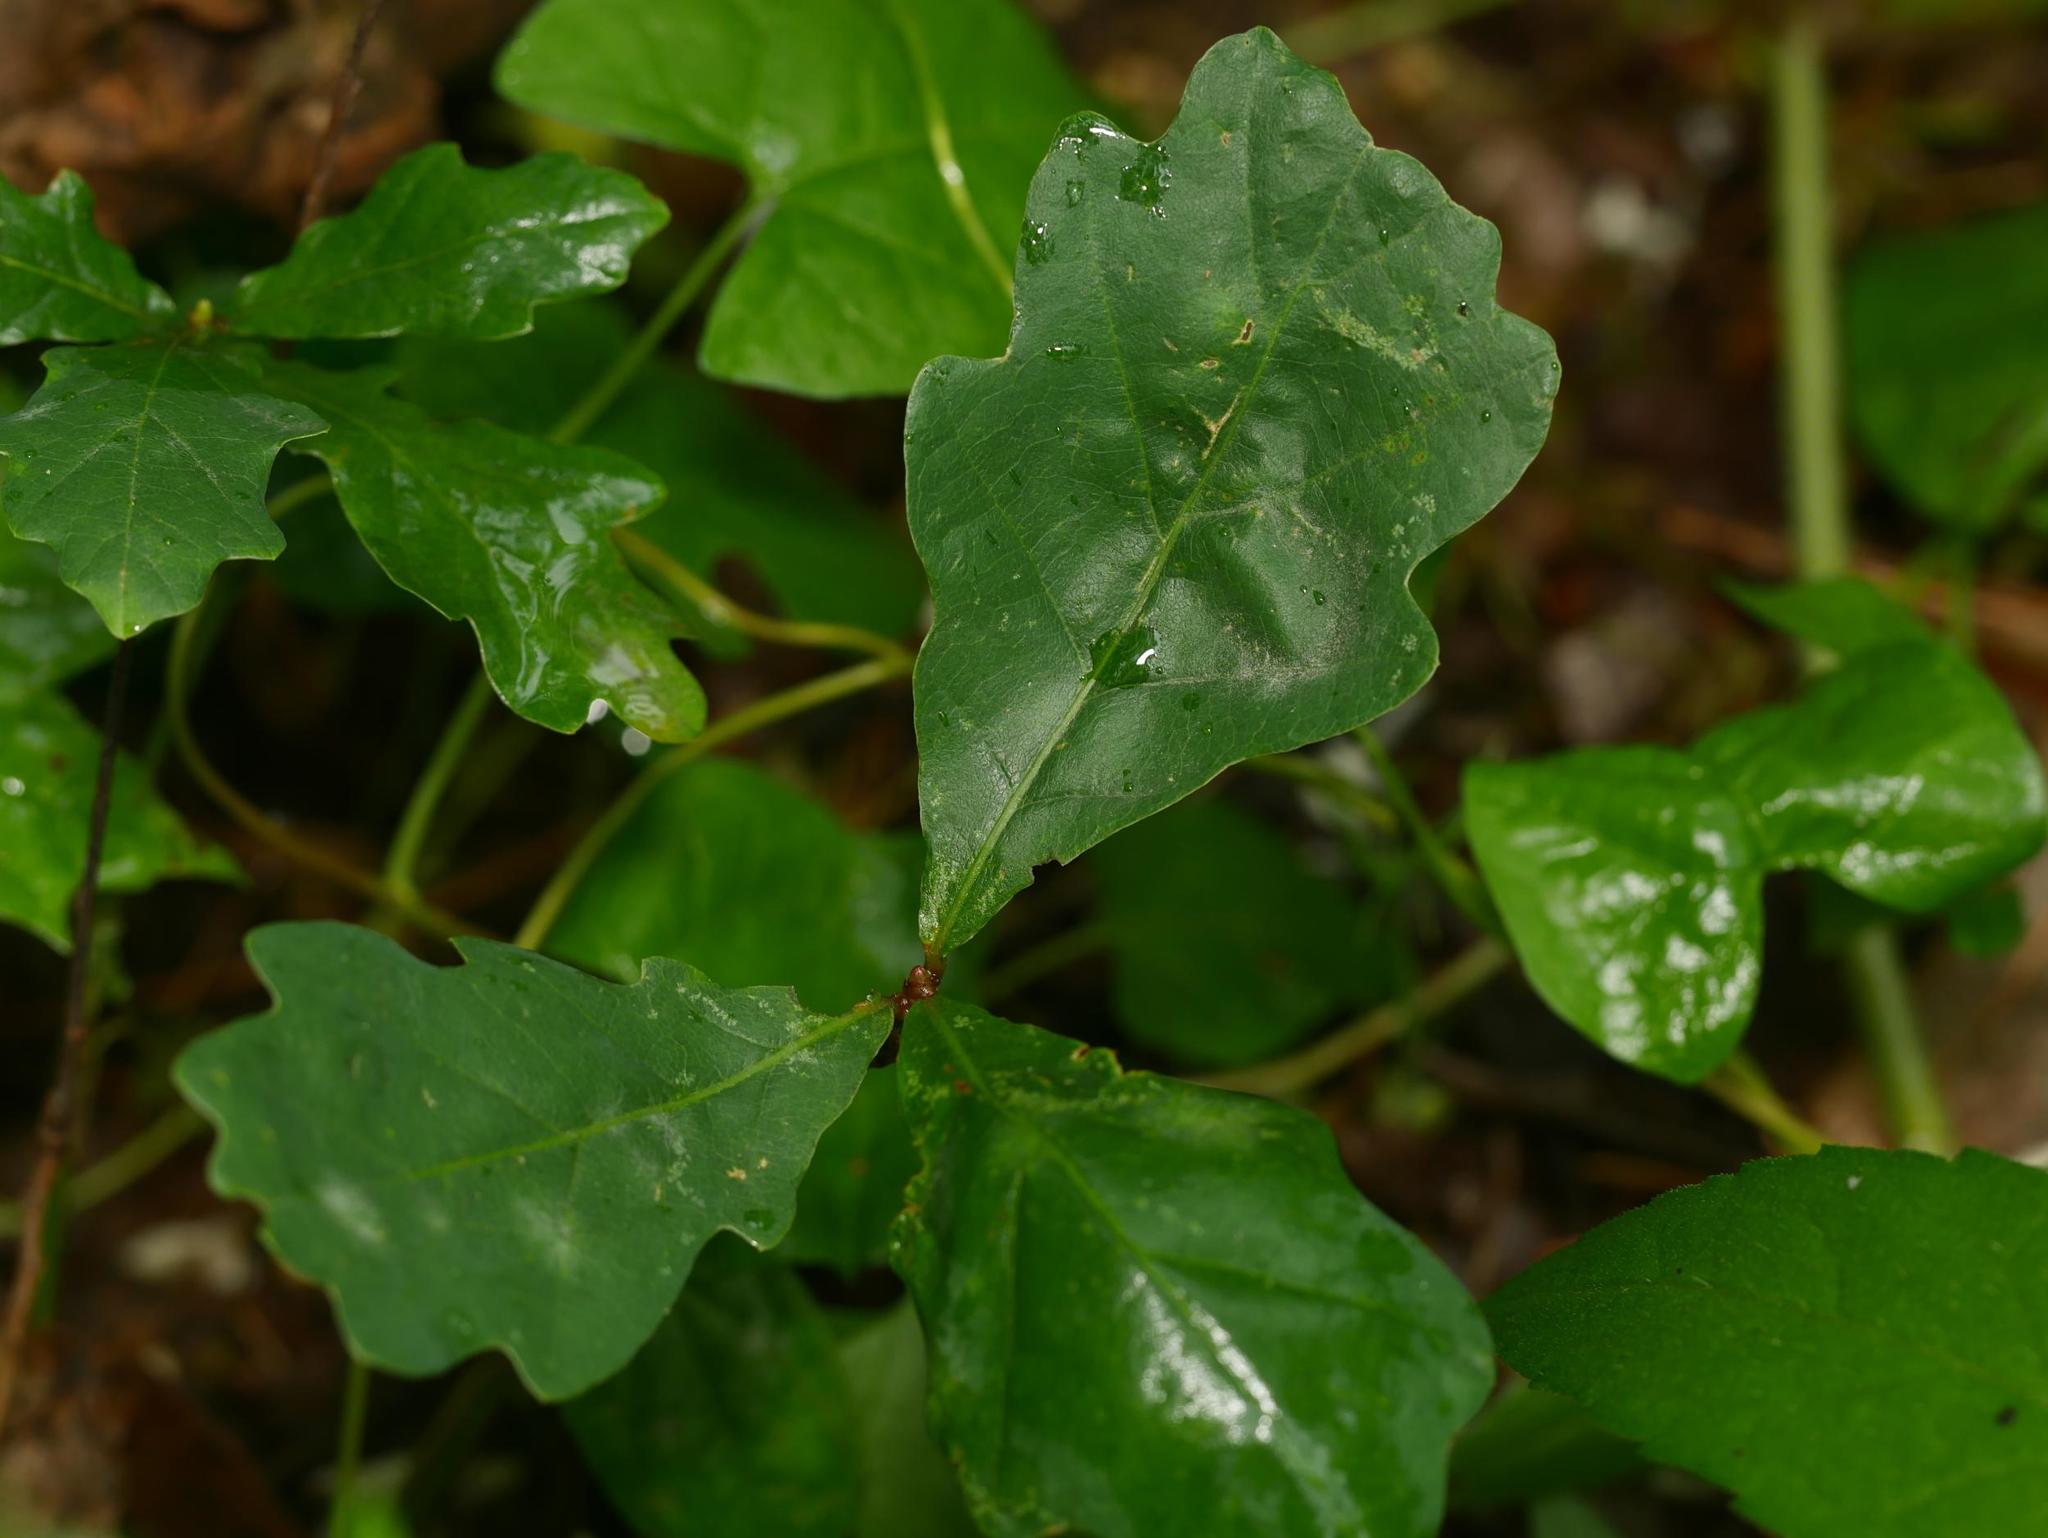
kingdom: Plantae
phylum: Tracheophyta
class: Magnoliopsida
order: Fagales
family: Fagaceae
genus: Quercus
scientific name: Quercus robur
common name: Pedunculate oak
